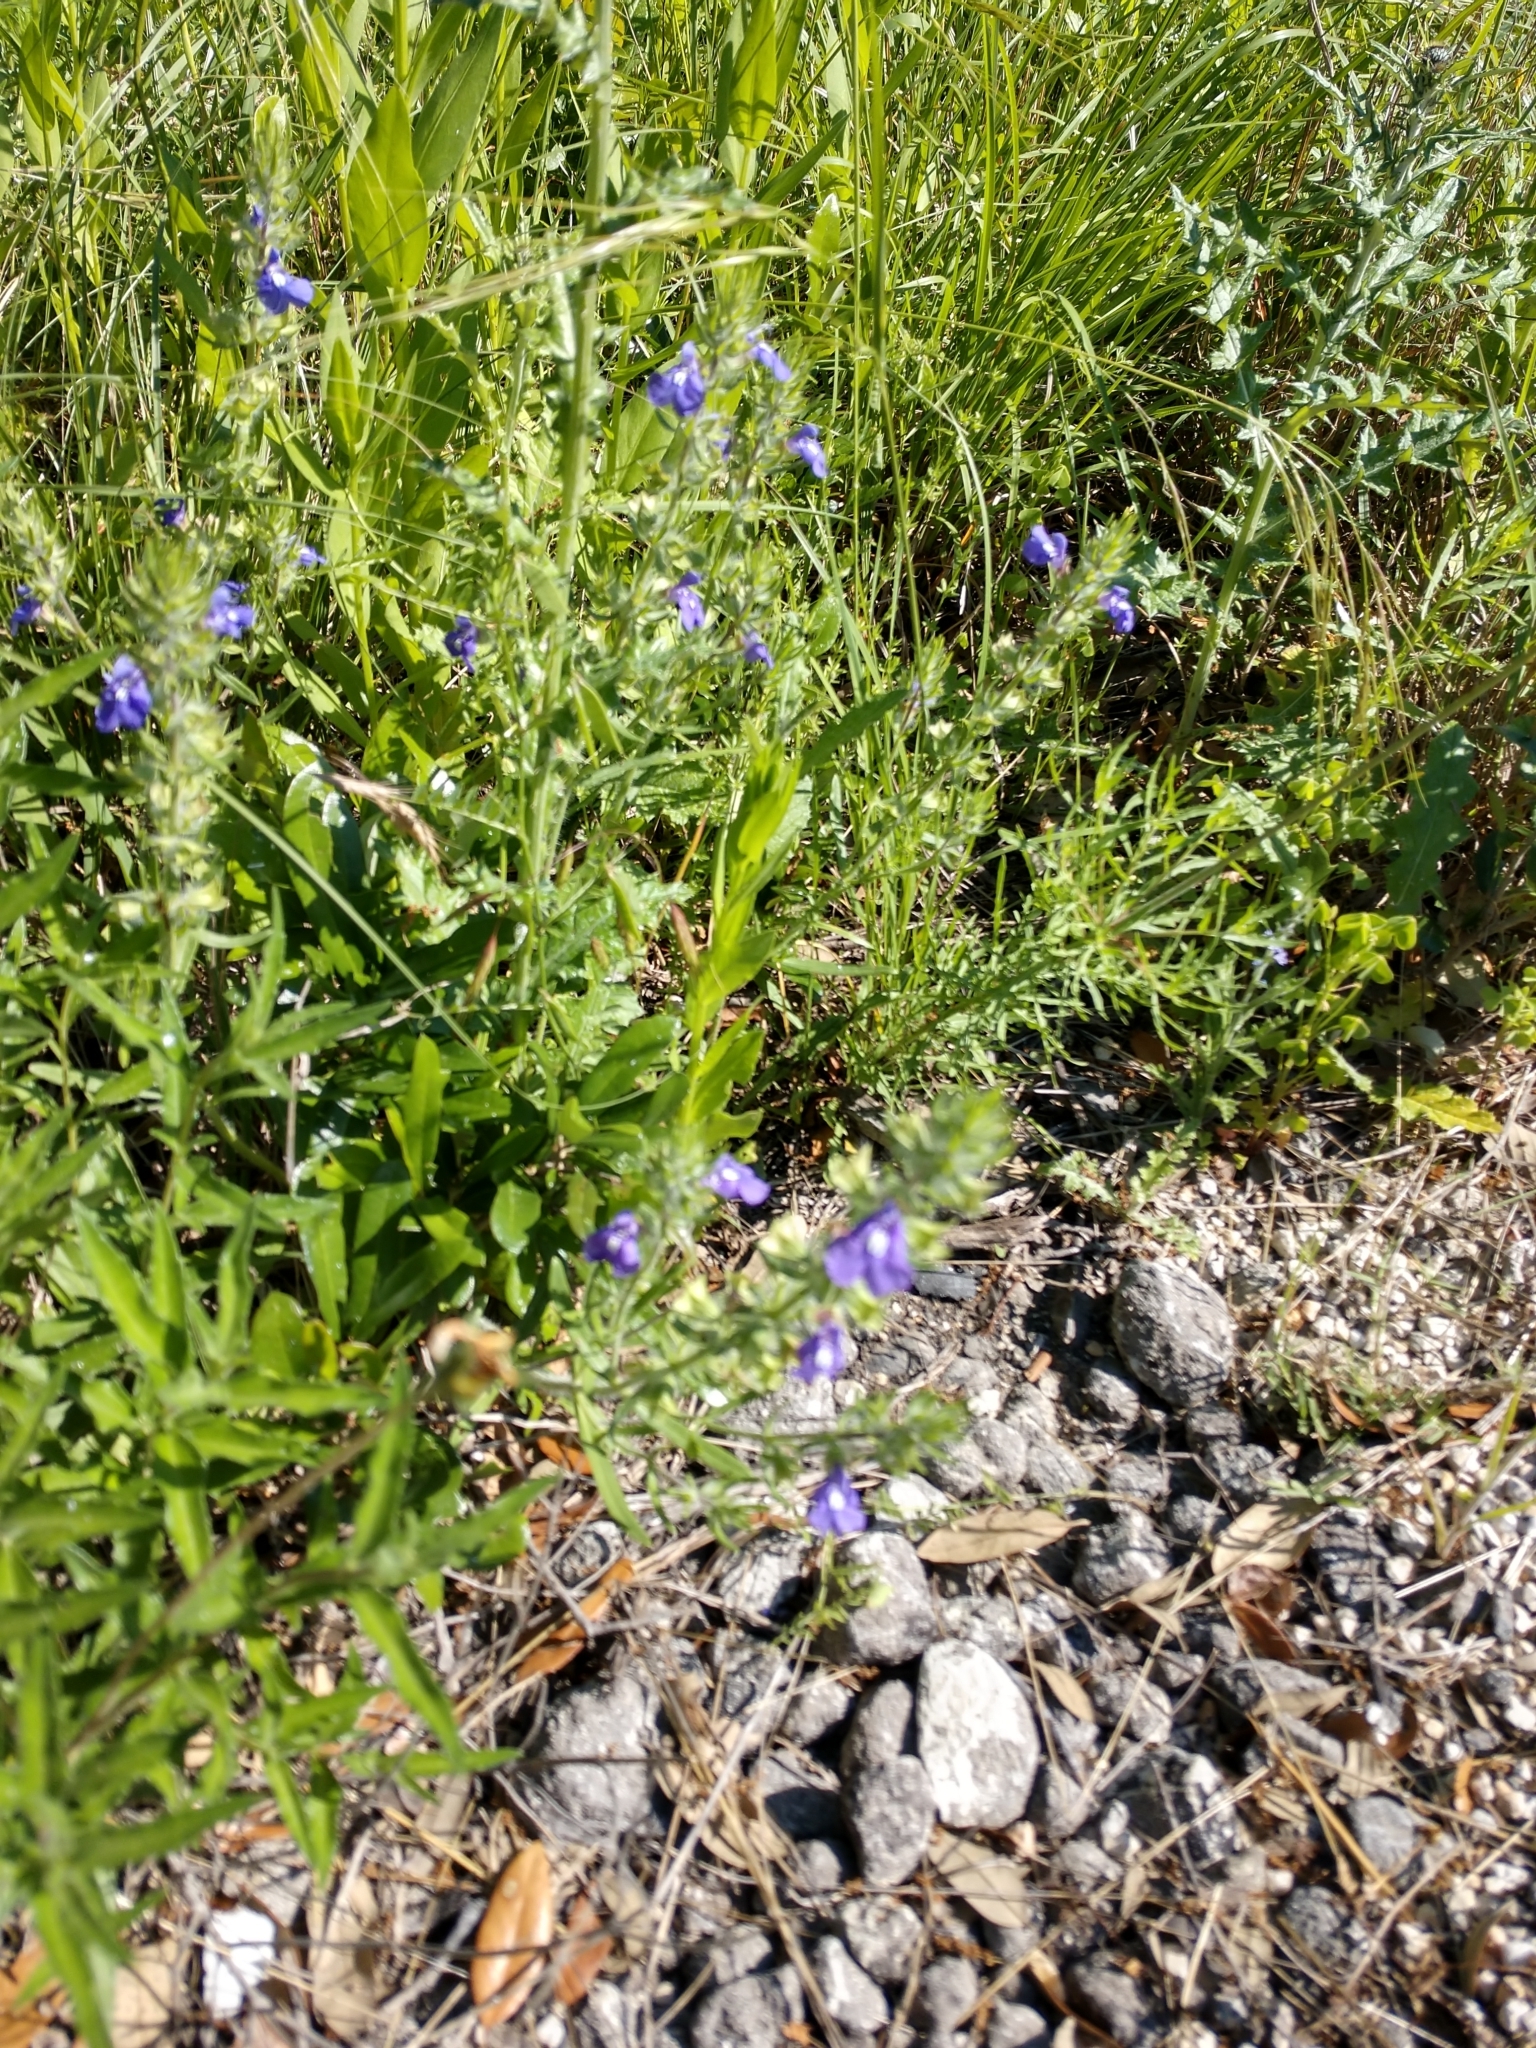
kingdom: Plantae
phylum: Tracheophyta
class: Magnoliopsida
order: Lamiales
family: Lamiaceae
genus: Salvia
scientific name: Salvia texana
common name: Texas sage
